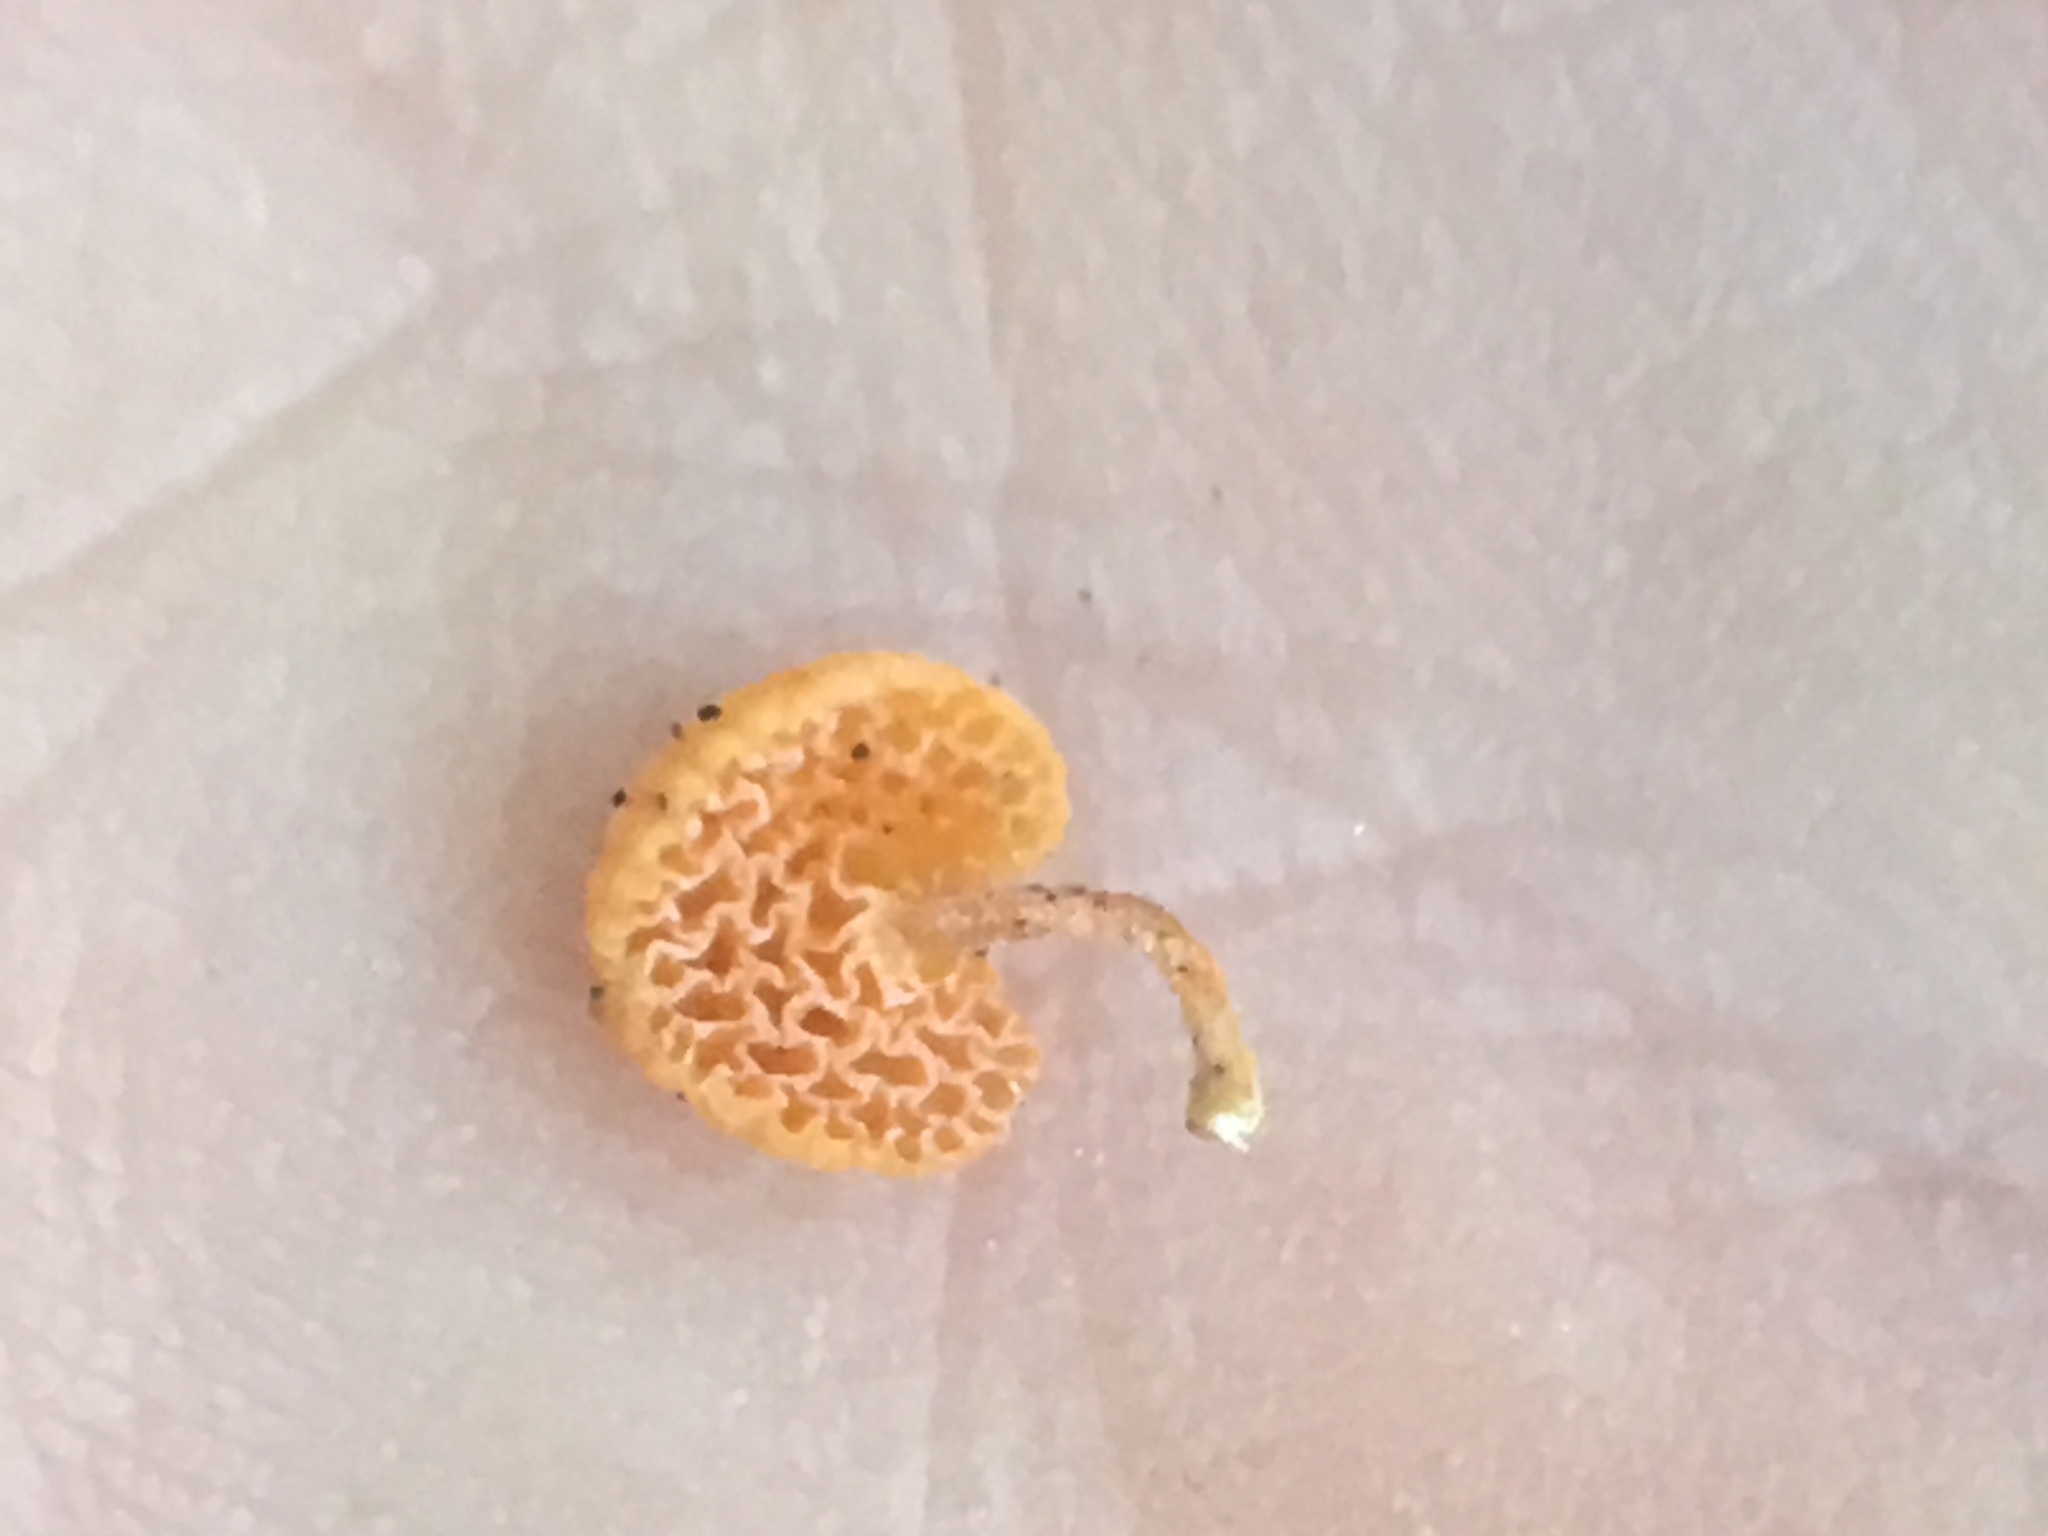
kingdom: Fungi
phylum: Basidiomycota
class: Agaricomycetes
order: Agaricales
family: Mycenaceae
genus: Favolaschia
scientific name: Favolaschia claudopus
